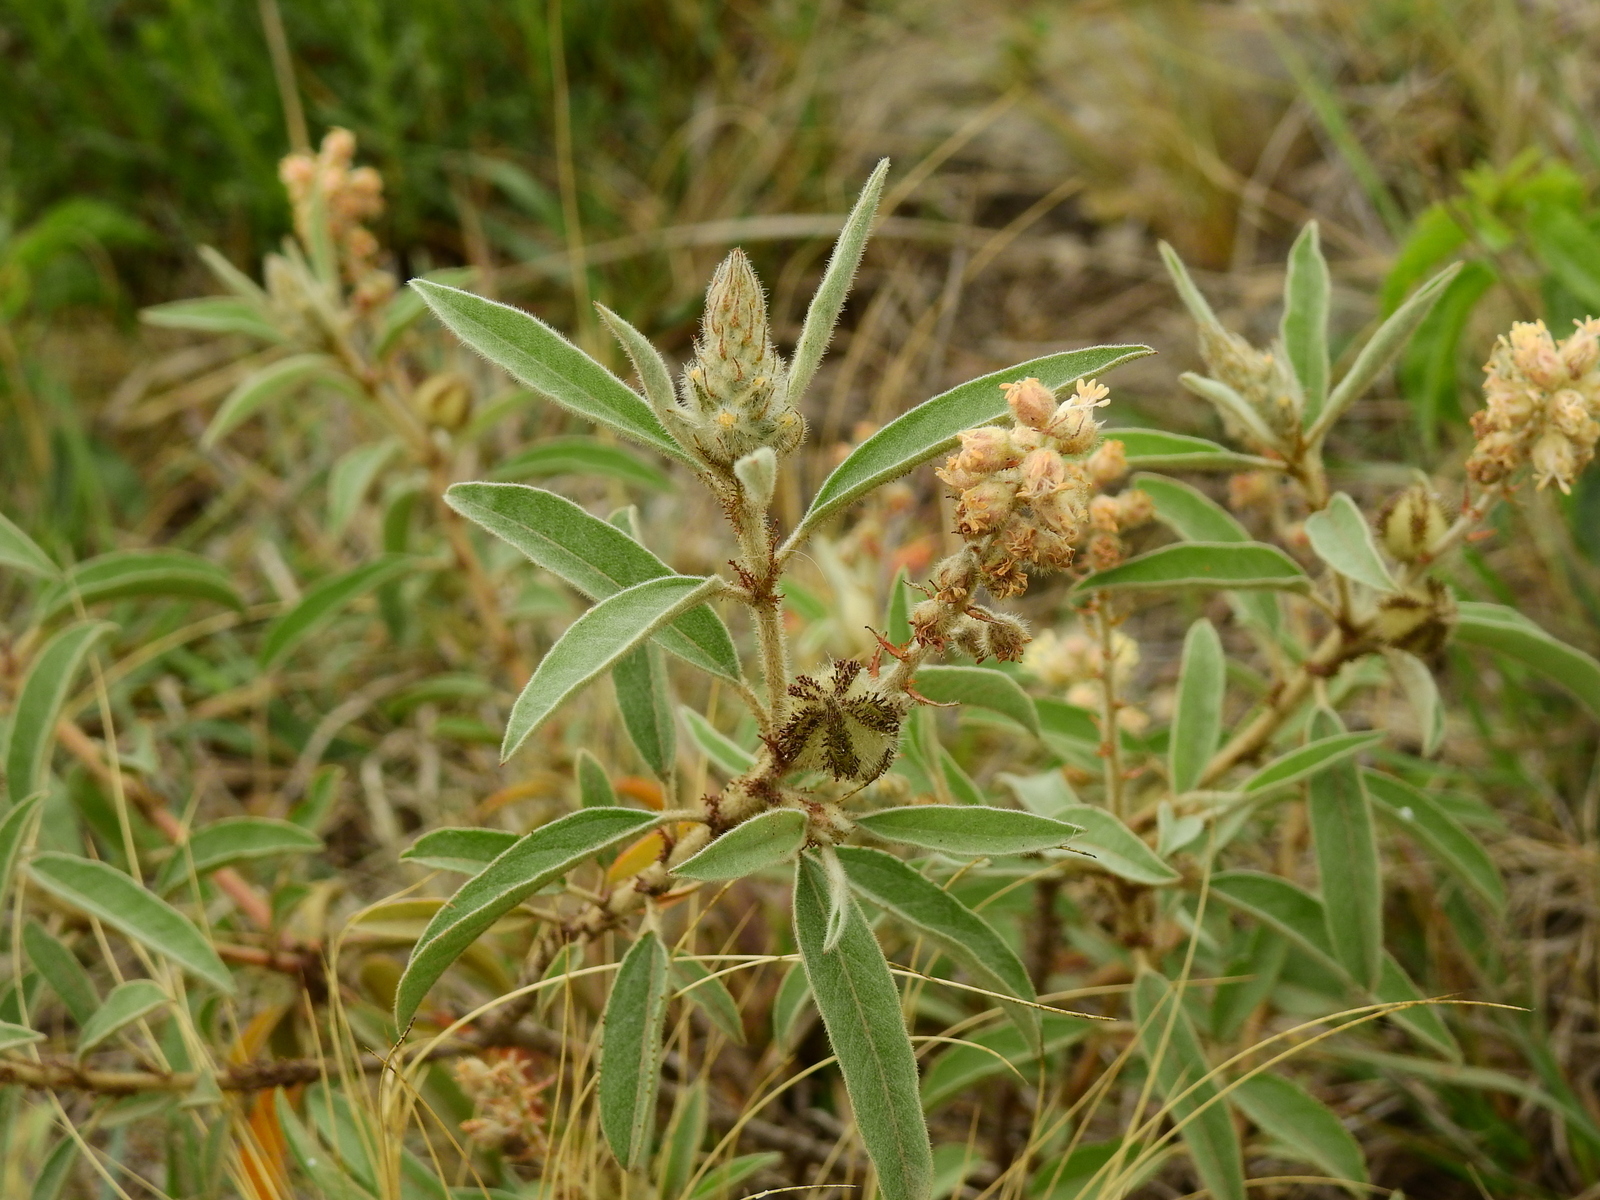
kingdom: Plantae
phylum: Tracheophyta
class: Magnoliopsida
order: Malpighiales
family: Euphorbiaceae
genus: Croton
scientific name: Croton serratifolius
